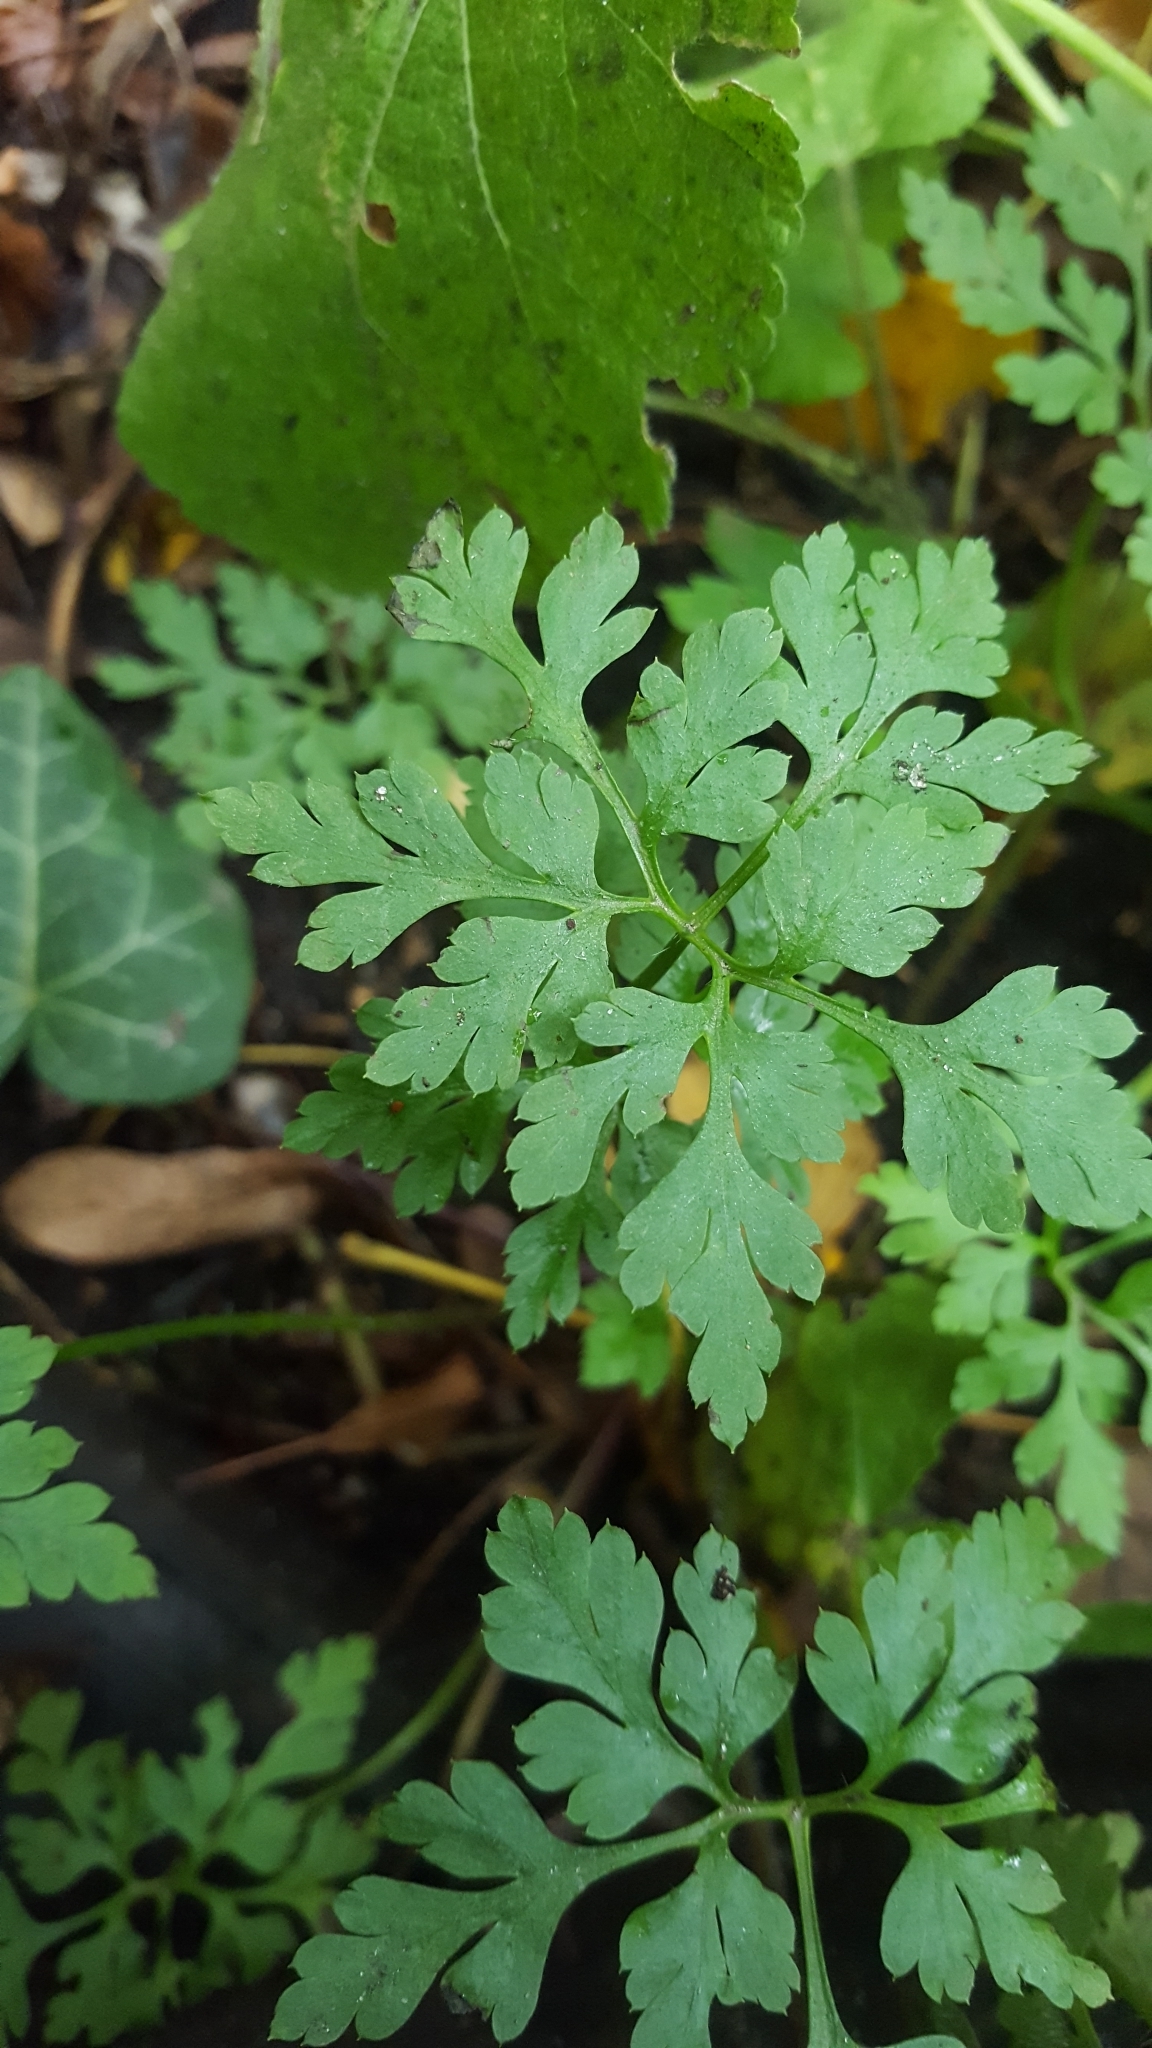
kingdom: Plantae
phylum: Tracheophyta
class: Magnoliopsida
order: Geraniales
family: Geraniaceae
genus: Geranium
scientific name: Geranium robertianum
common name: Herb-robert
